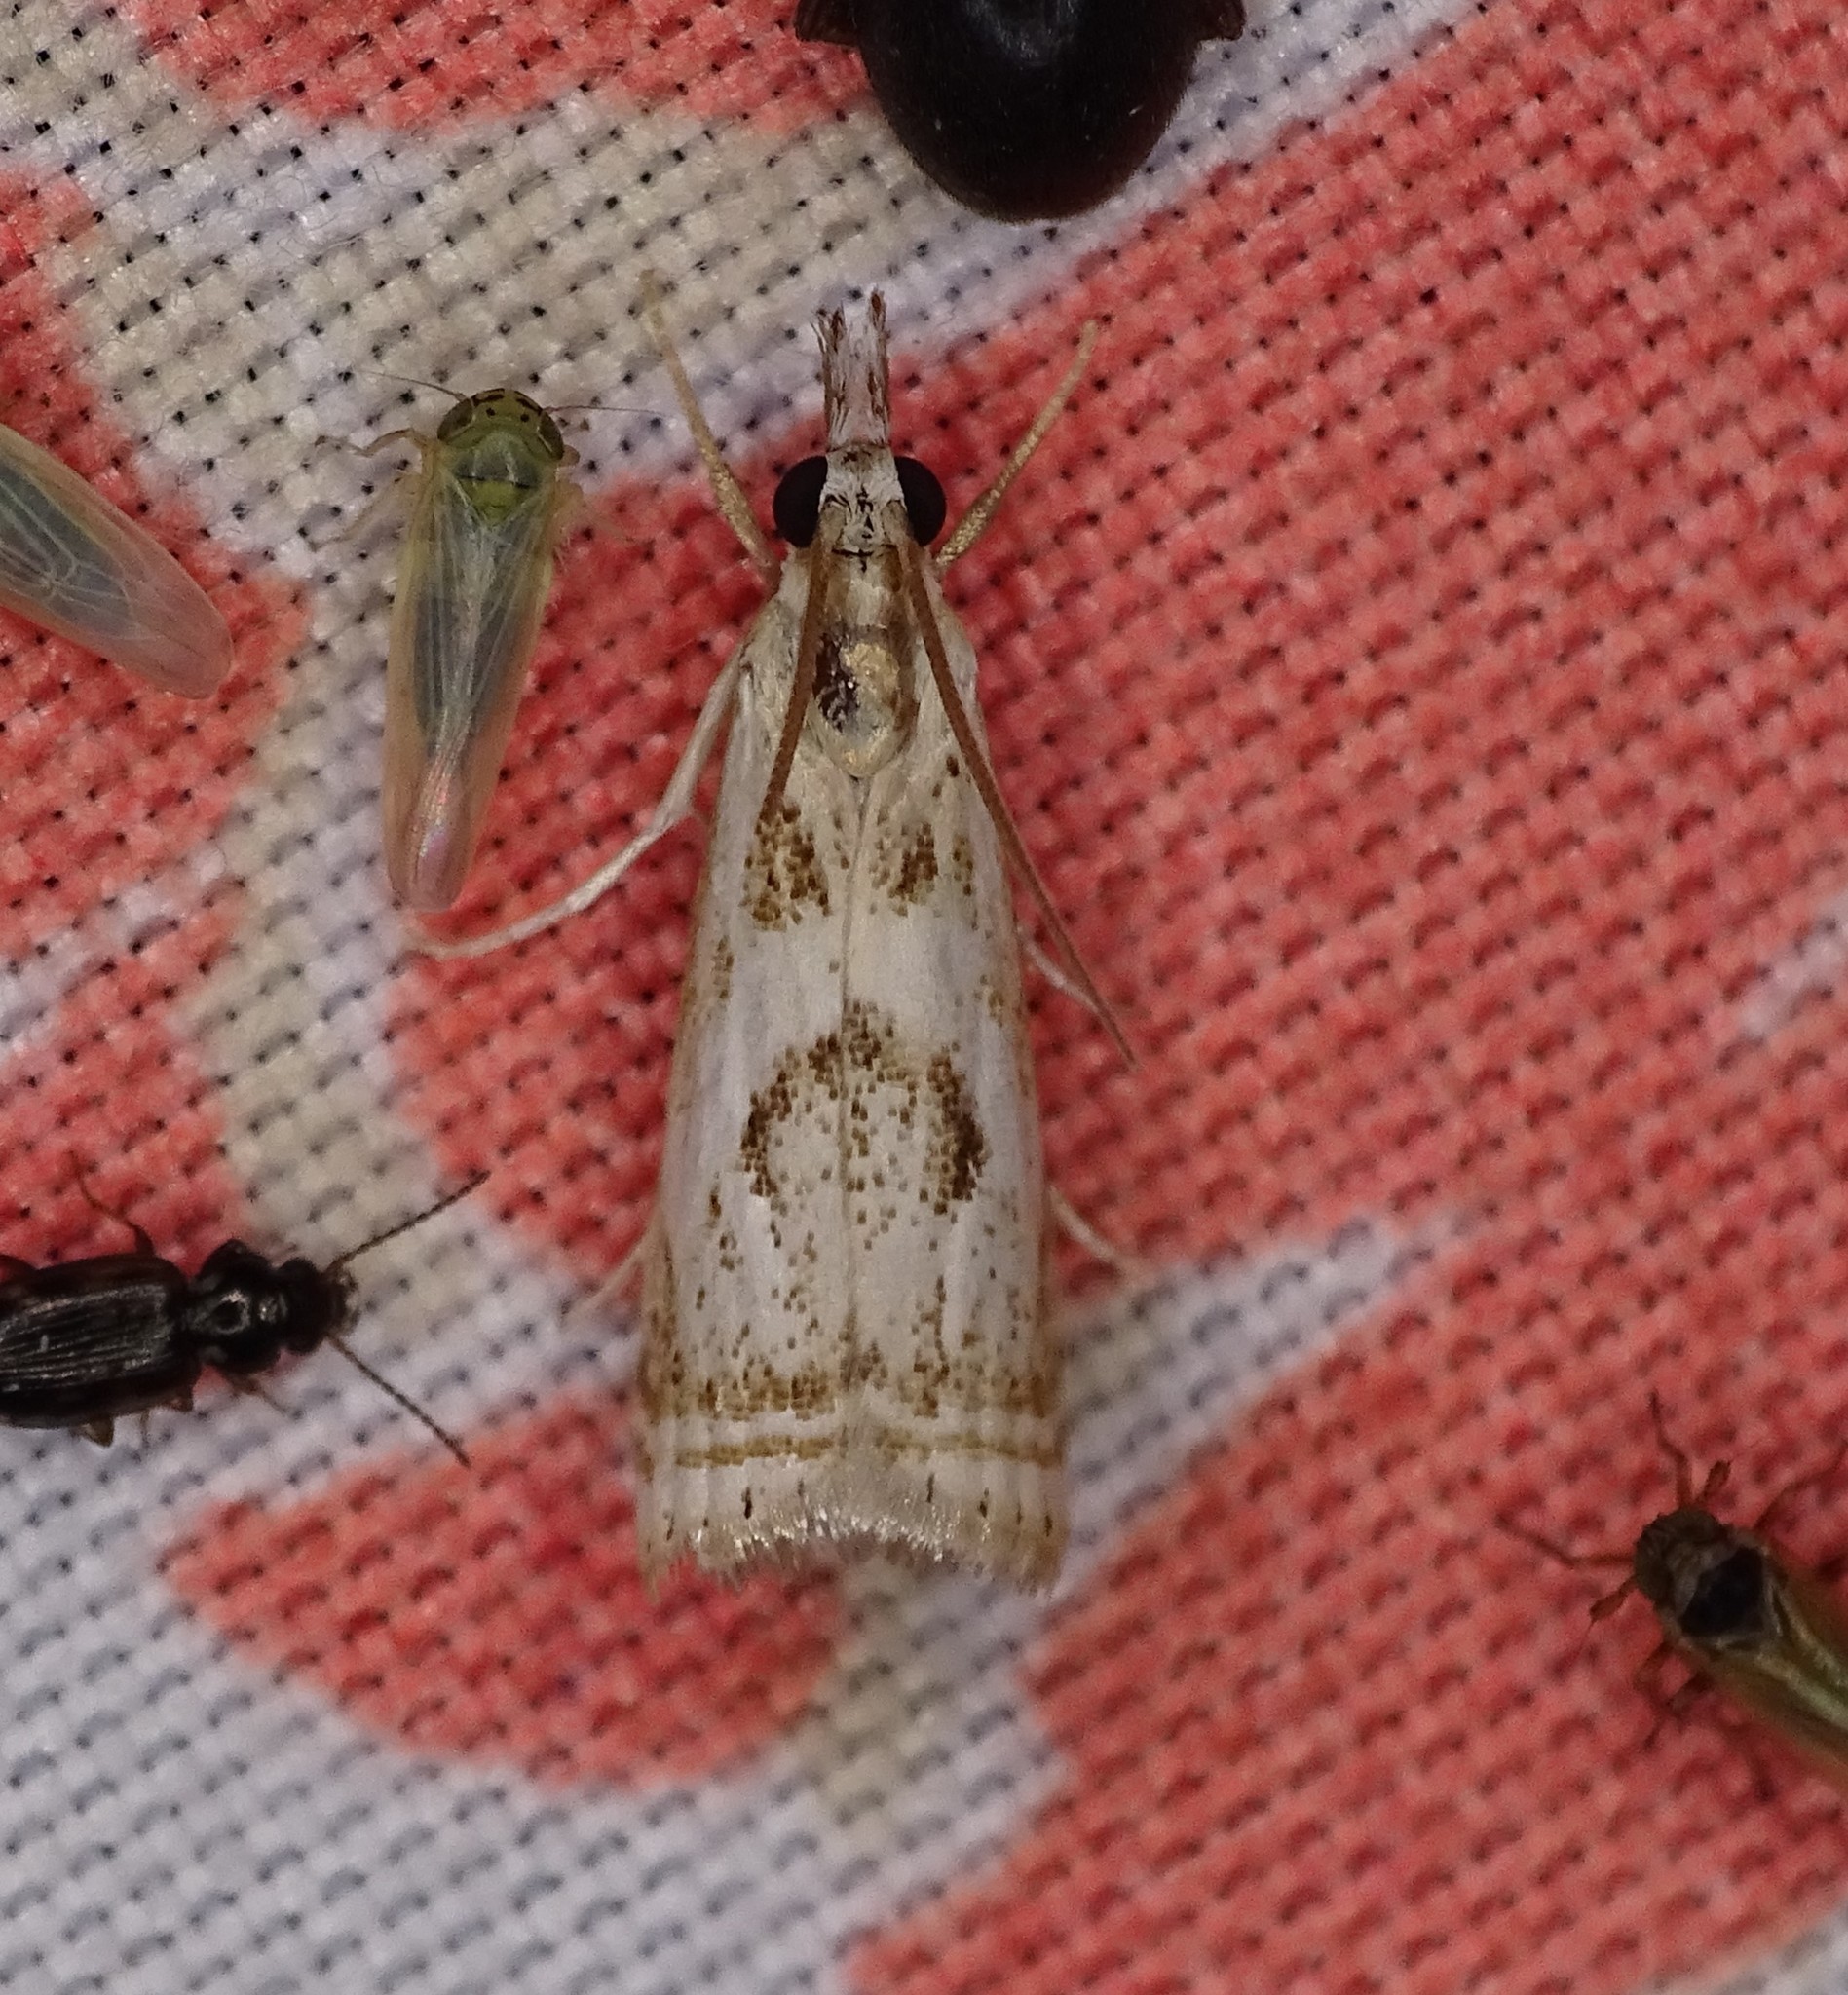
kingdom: Animalia
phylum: Arthropoda
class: Insecta
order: Lepidoptera
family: Crambidae
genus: Microcrambus
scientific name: Microcrambus elegans
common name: Elegant grass-veneer
